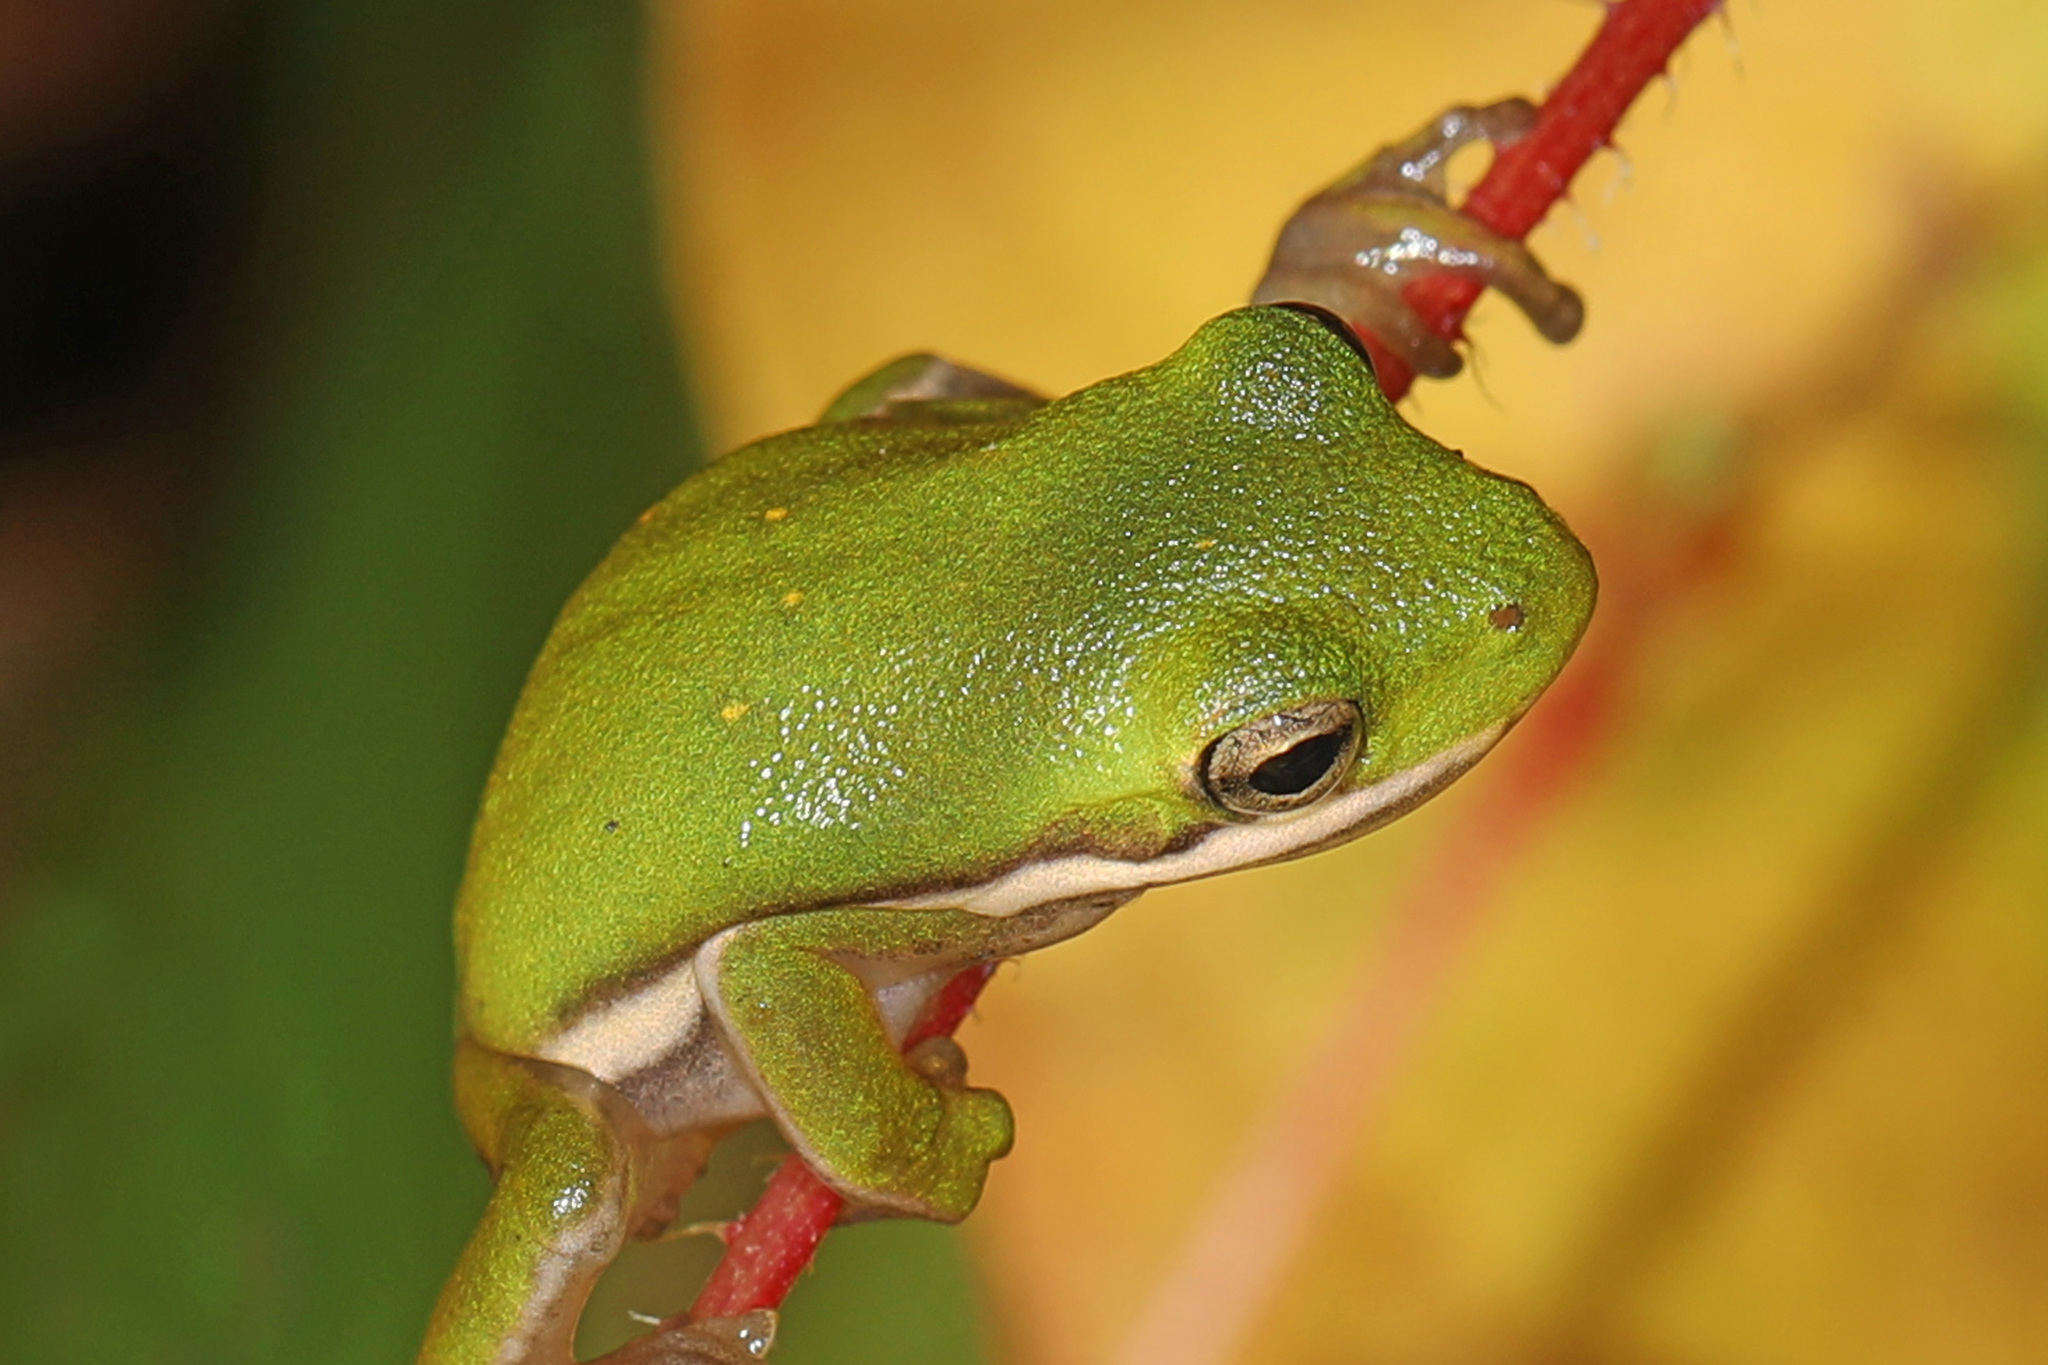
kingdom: Animalia
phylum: Chordata
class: Amphibia
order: Anura
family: Hylidae
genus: Dryophytes
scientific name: Dryophytes cinereus
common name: Green treefrog
